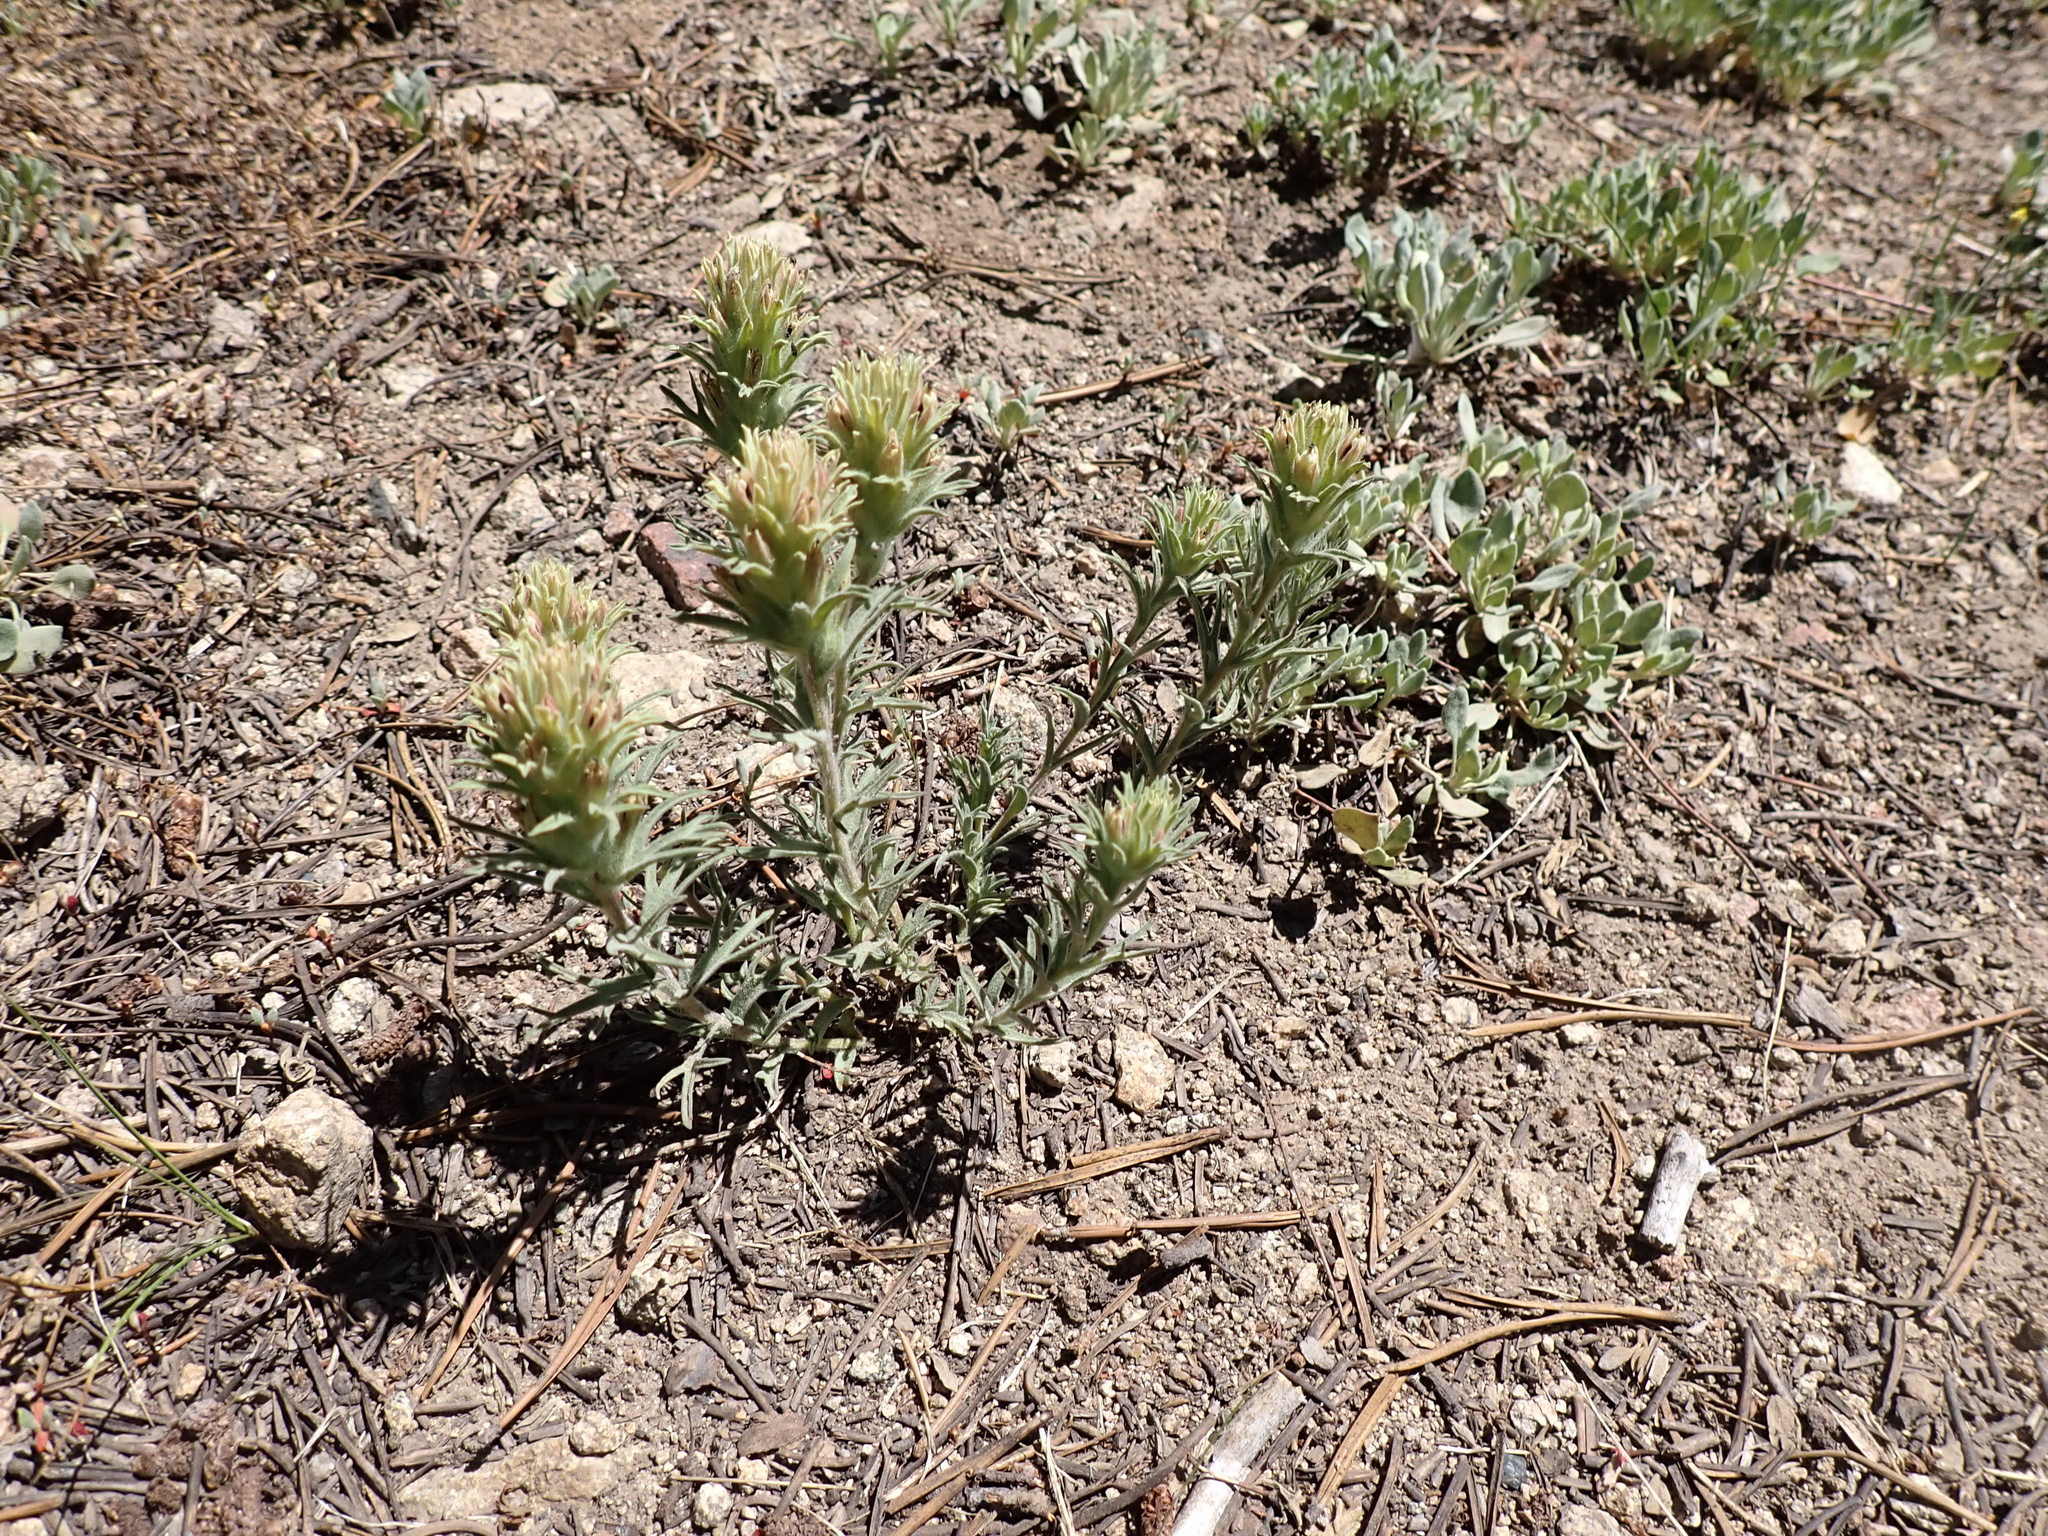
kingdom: Plantae
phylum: Tracheophyta
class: Magnoliopsida
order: Lamiales
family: Orobanchaceae
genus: Castilleja
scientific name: Castilleja nana
